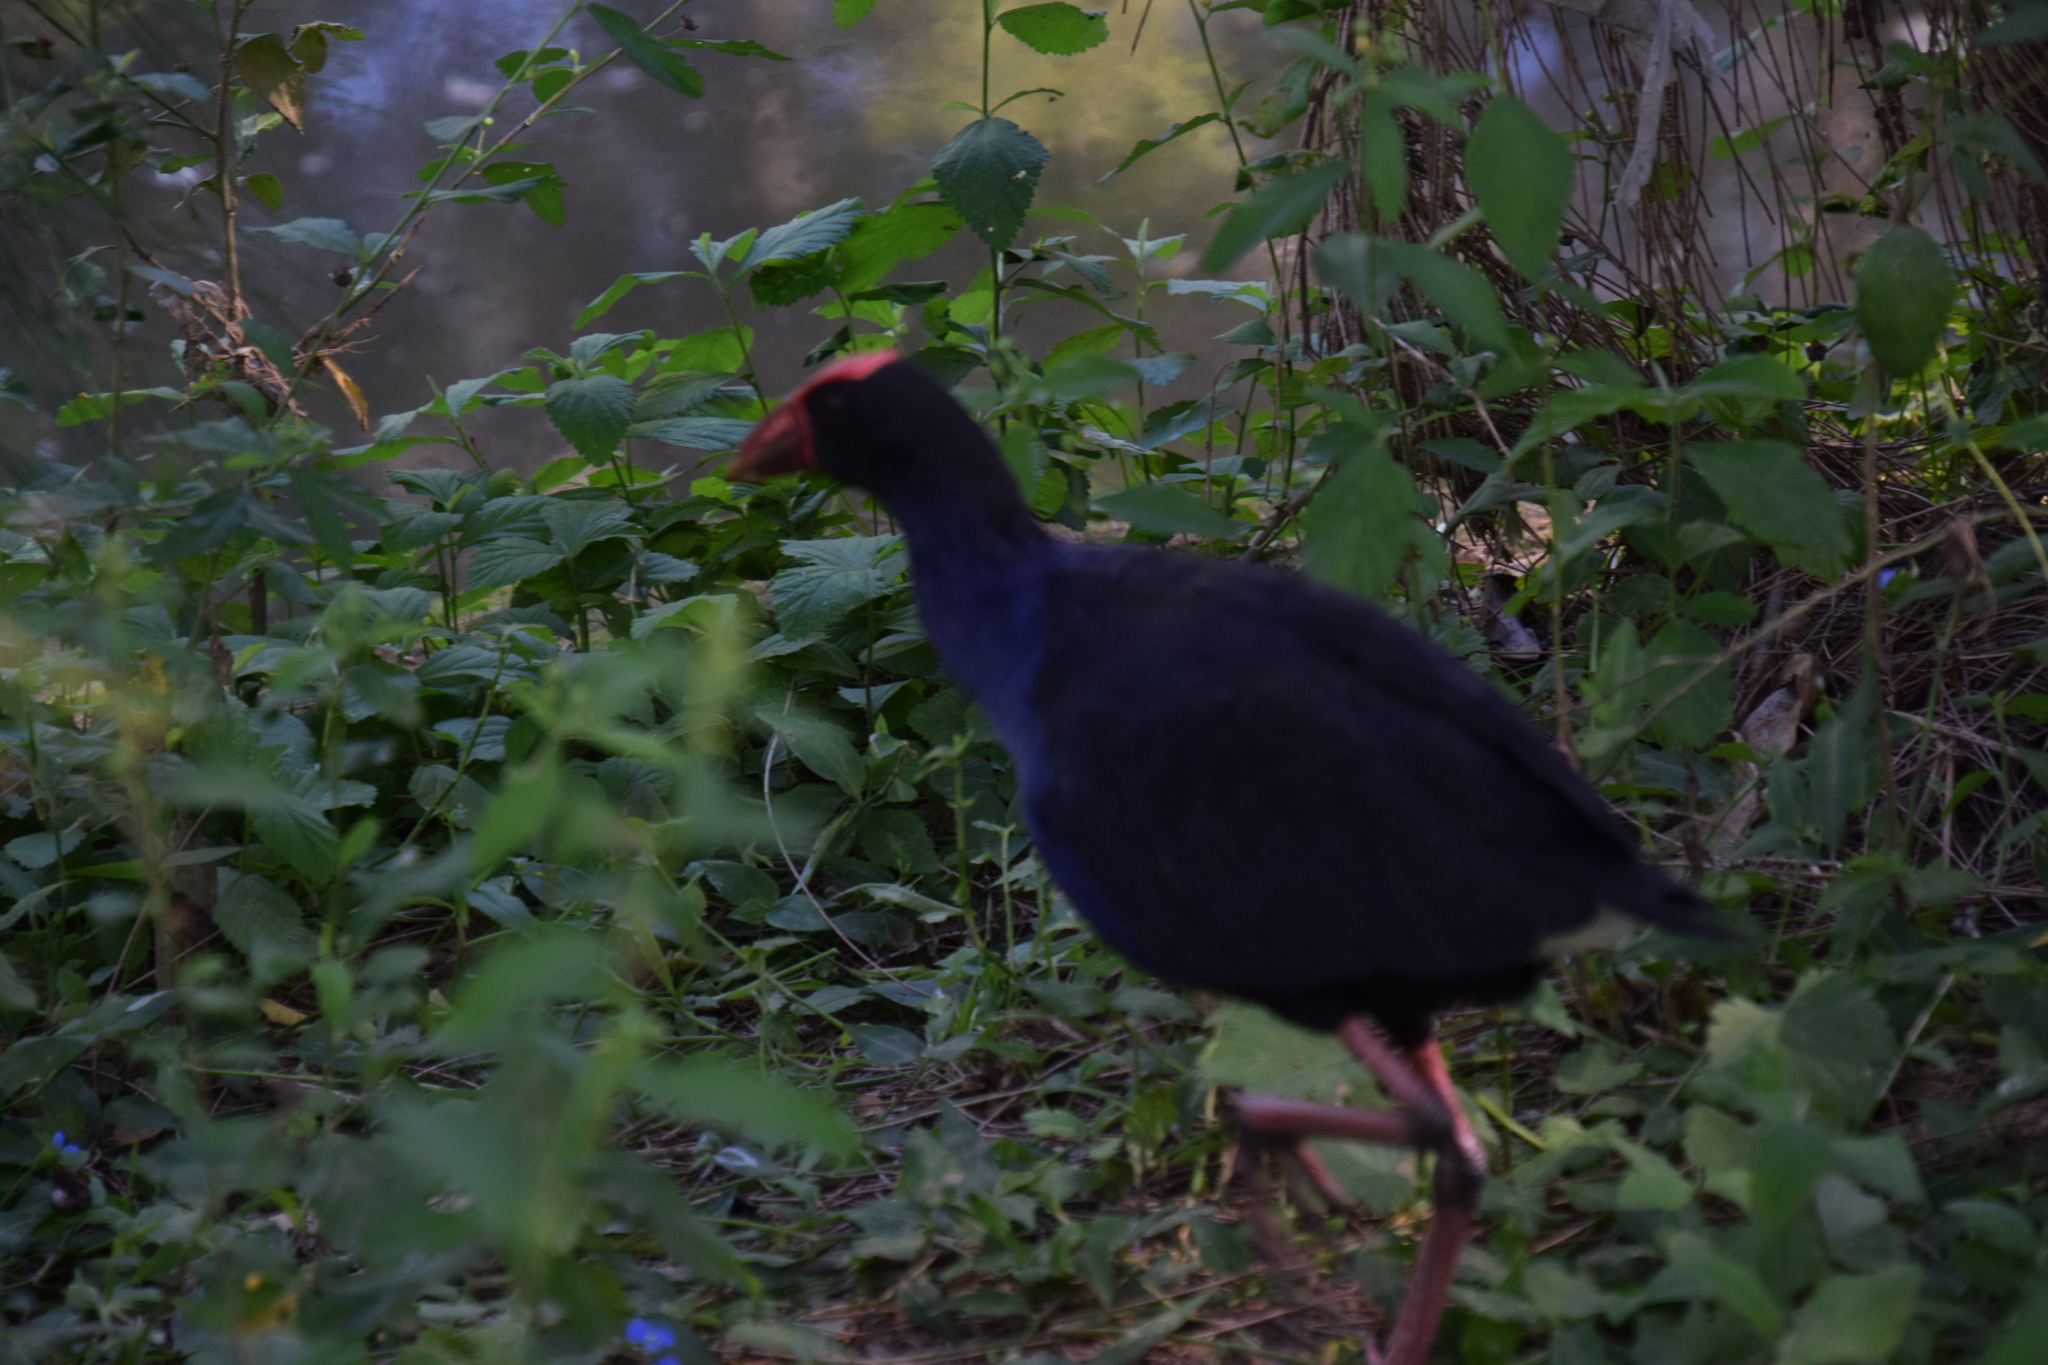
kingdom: Animalia
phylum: Chordata
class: Aves
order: Gruiformes
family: Rallidae
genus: Porphyrio
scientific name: Porphyrio melanotus
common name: Australasian swamphen
